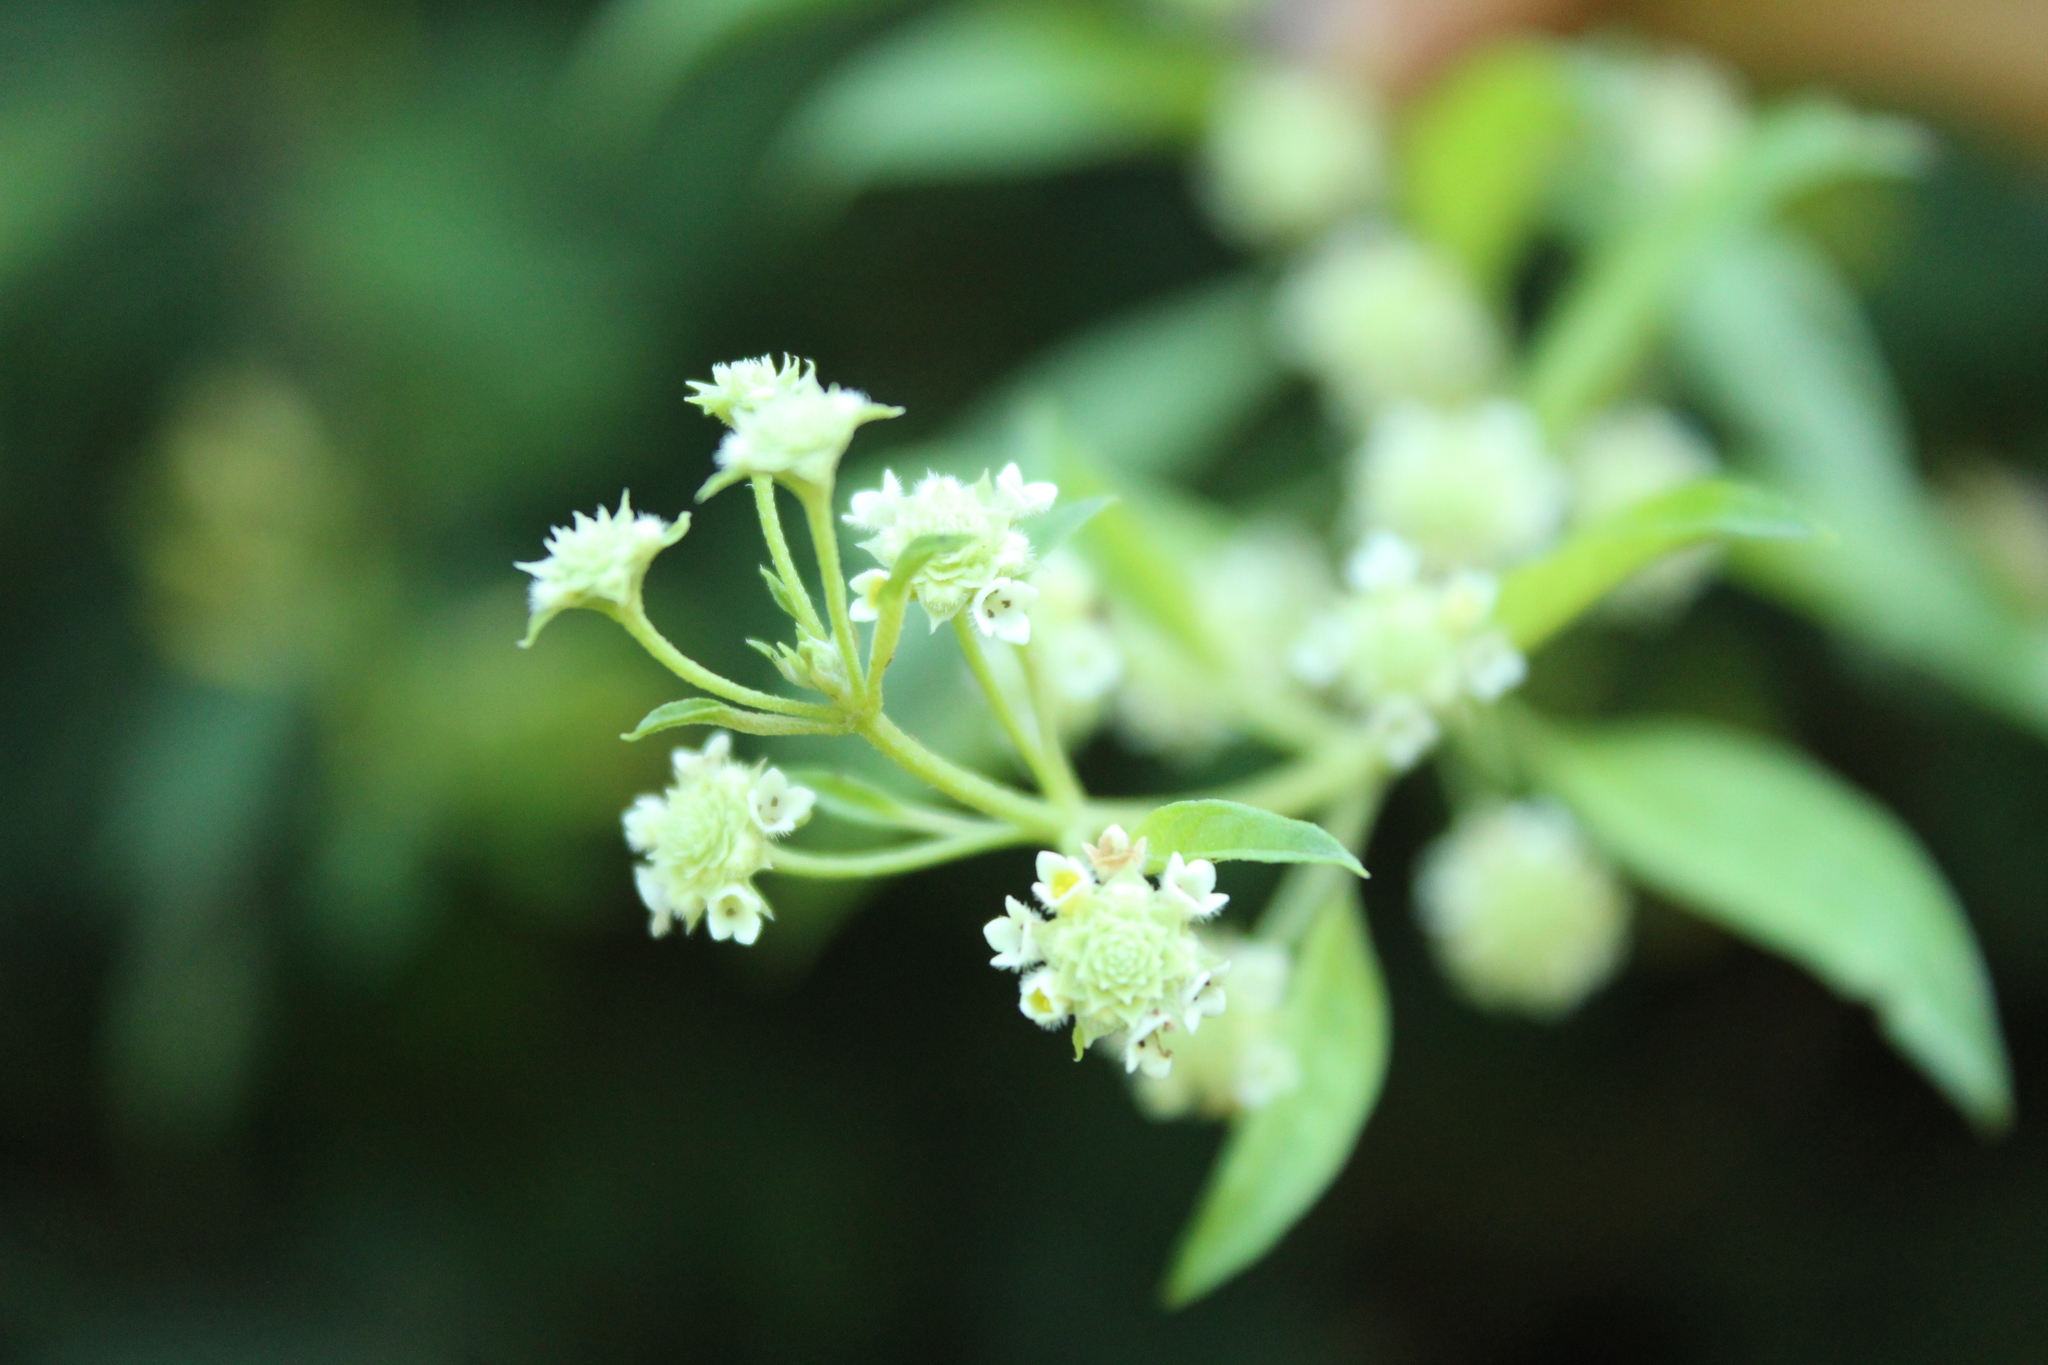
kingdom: Plantae
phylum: Tracheophyta
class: Magnoliopsida
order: Lamiales
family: Verbenaceae
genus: Lippia
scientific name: Lippia dulcis
